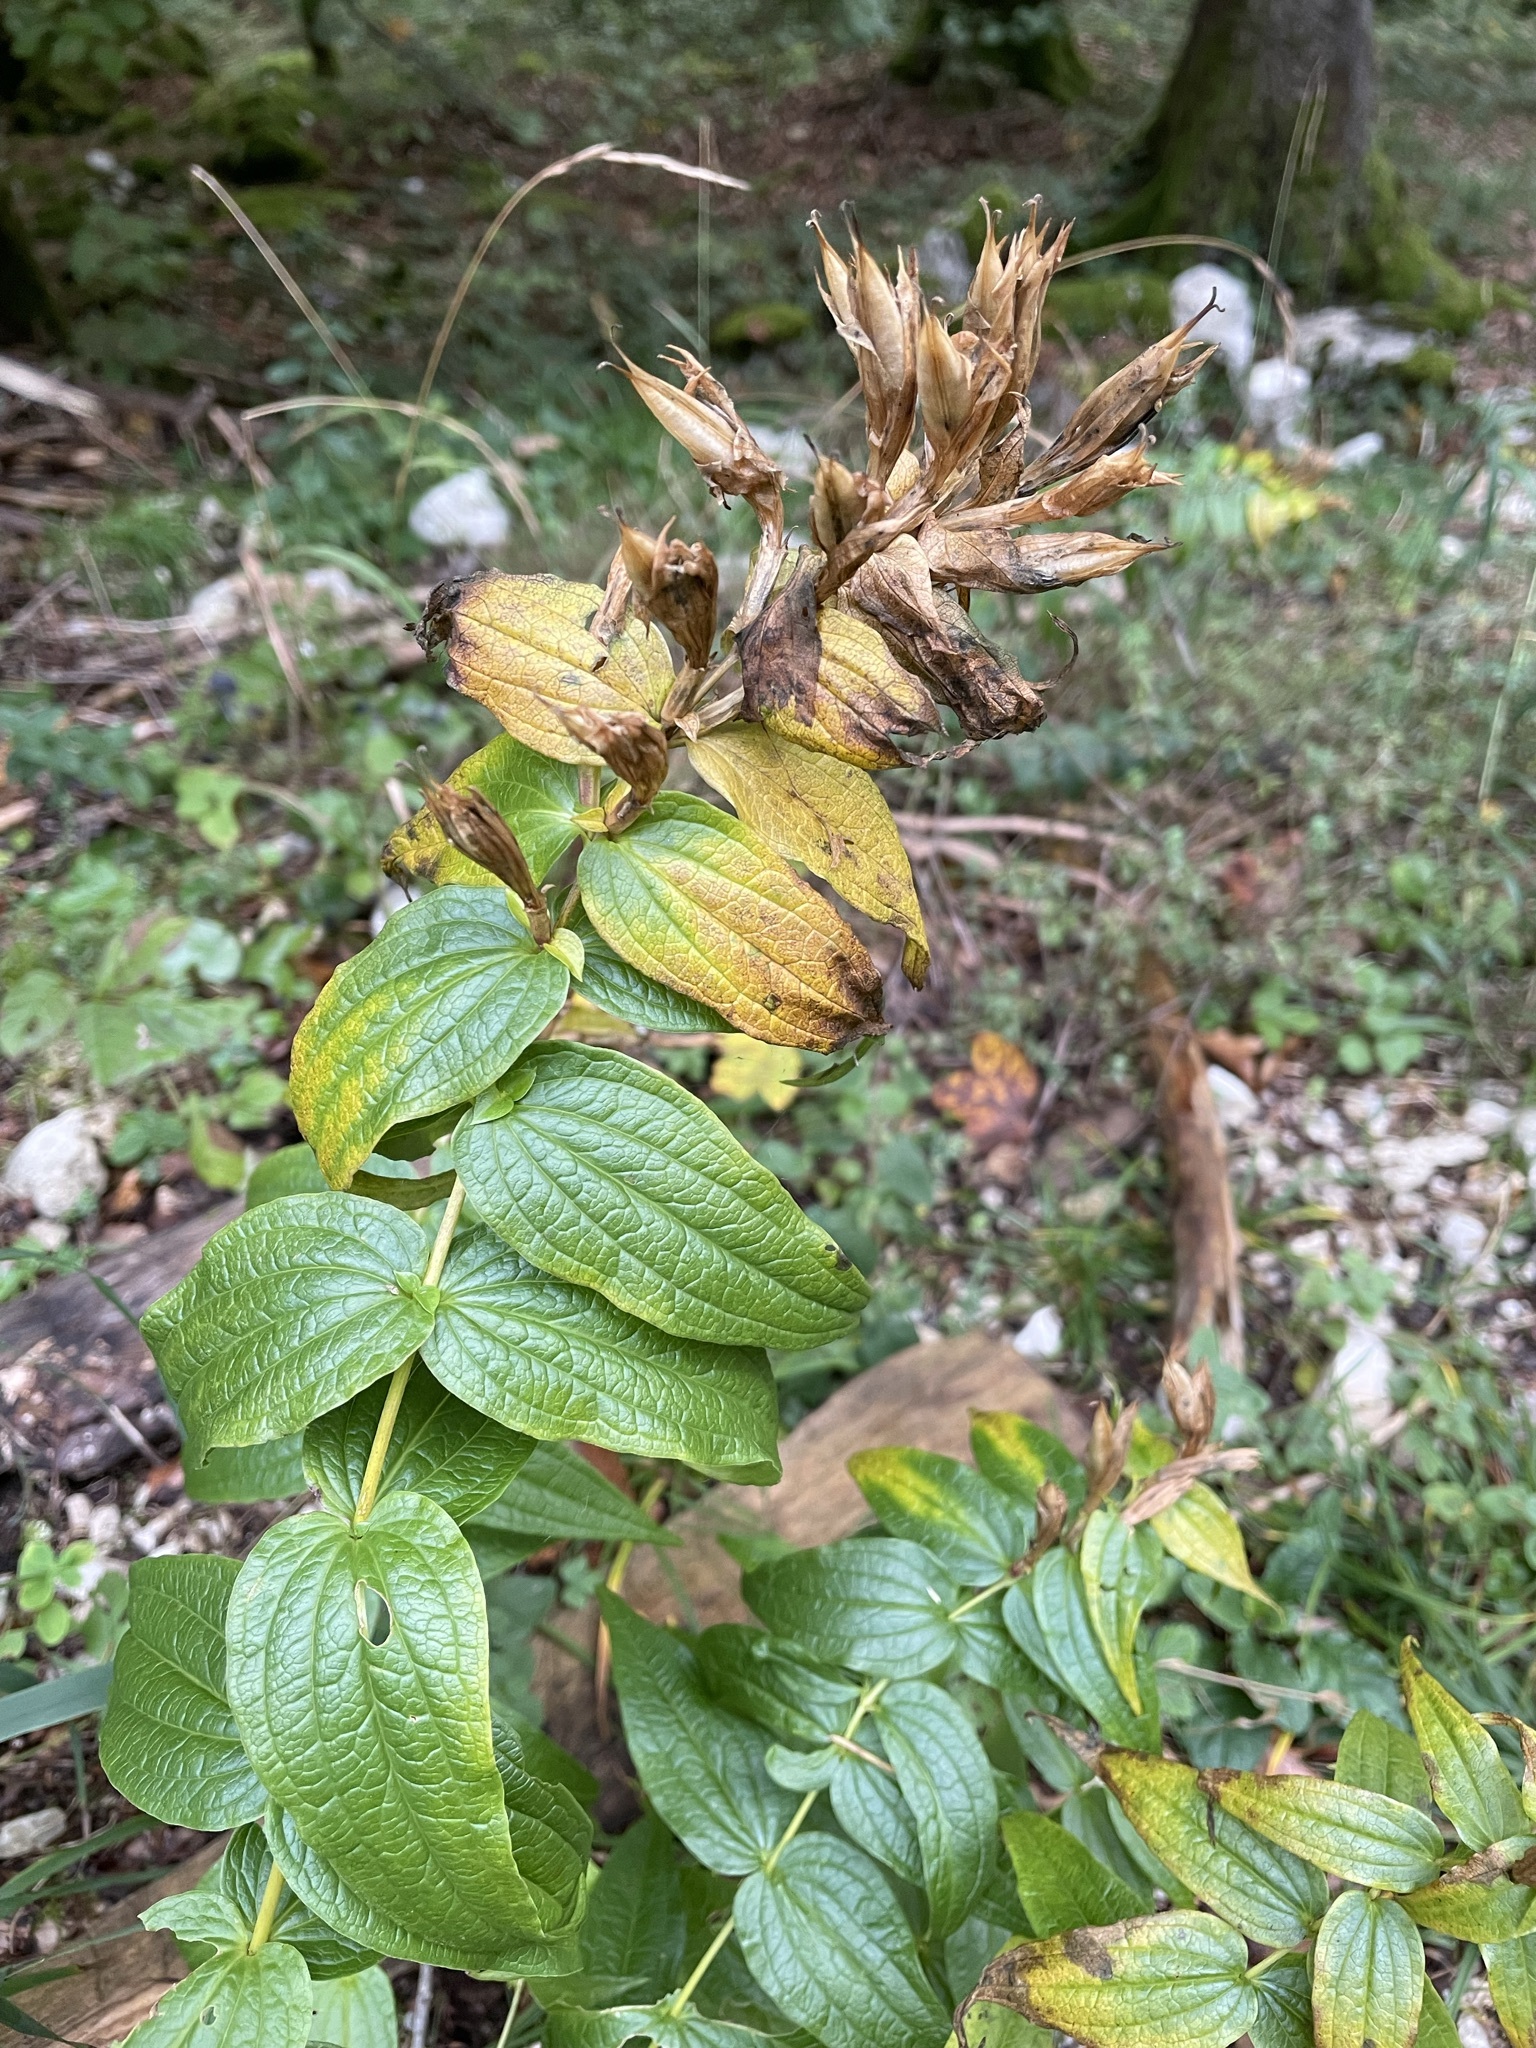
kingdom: Plantae
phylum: Tracheophyta
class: Magnoliopsida
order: Gentianales
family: Gentianaceae
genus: Gentiana
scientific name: Gentiana asclepiadea
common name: Willow gentian
